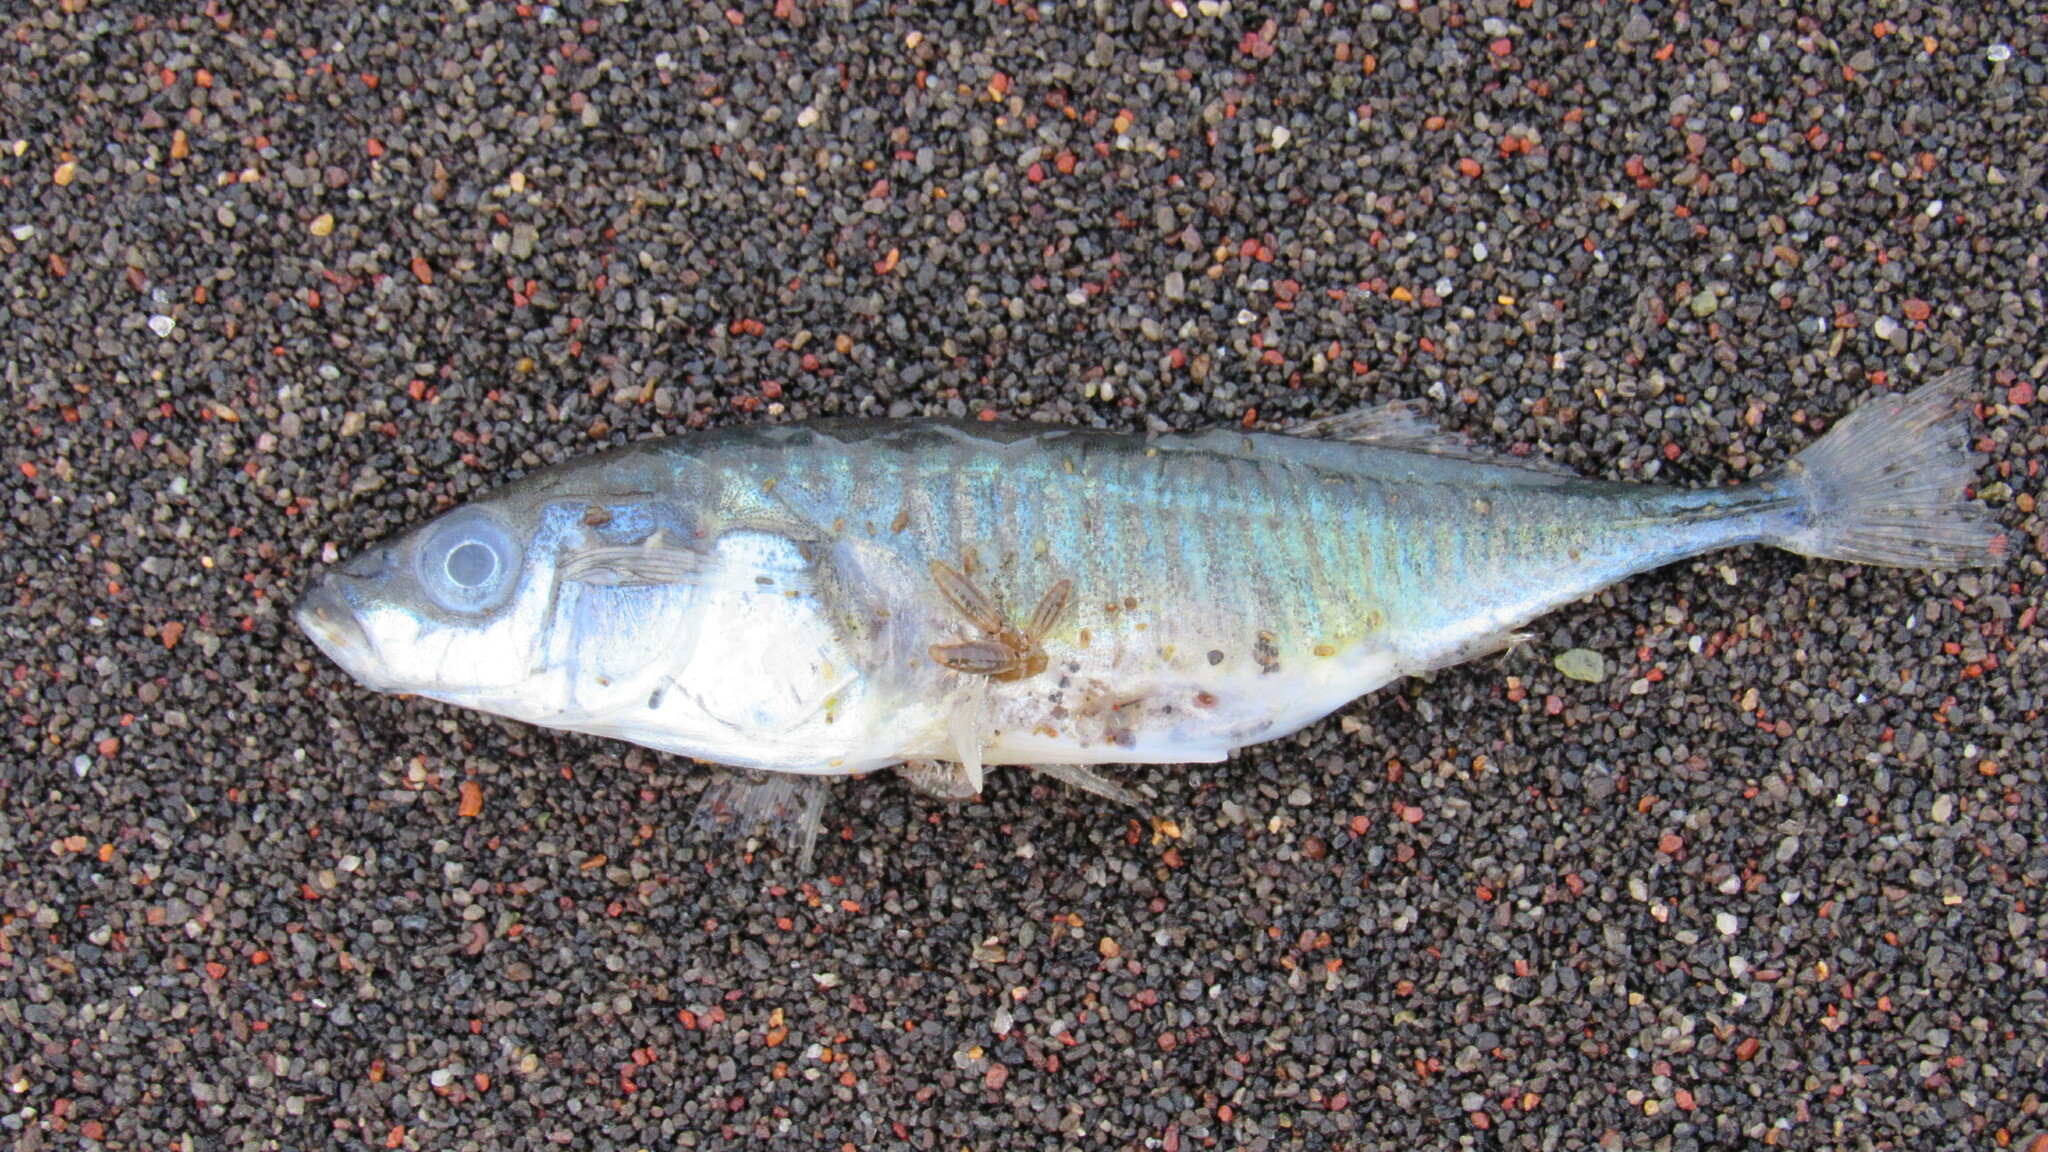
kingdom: Animalia
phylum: Chordata
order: Gasterosteiformes
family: Gasterosteidae
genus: Gasterosteus
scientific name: Gasterosteus aculeatus
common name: Three-spined stickleback
